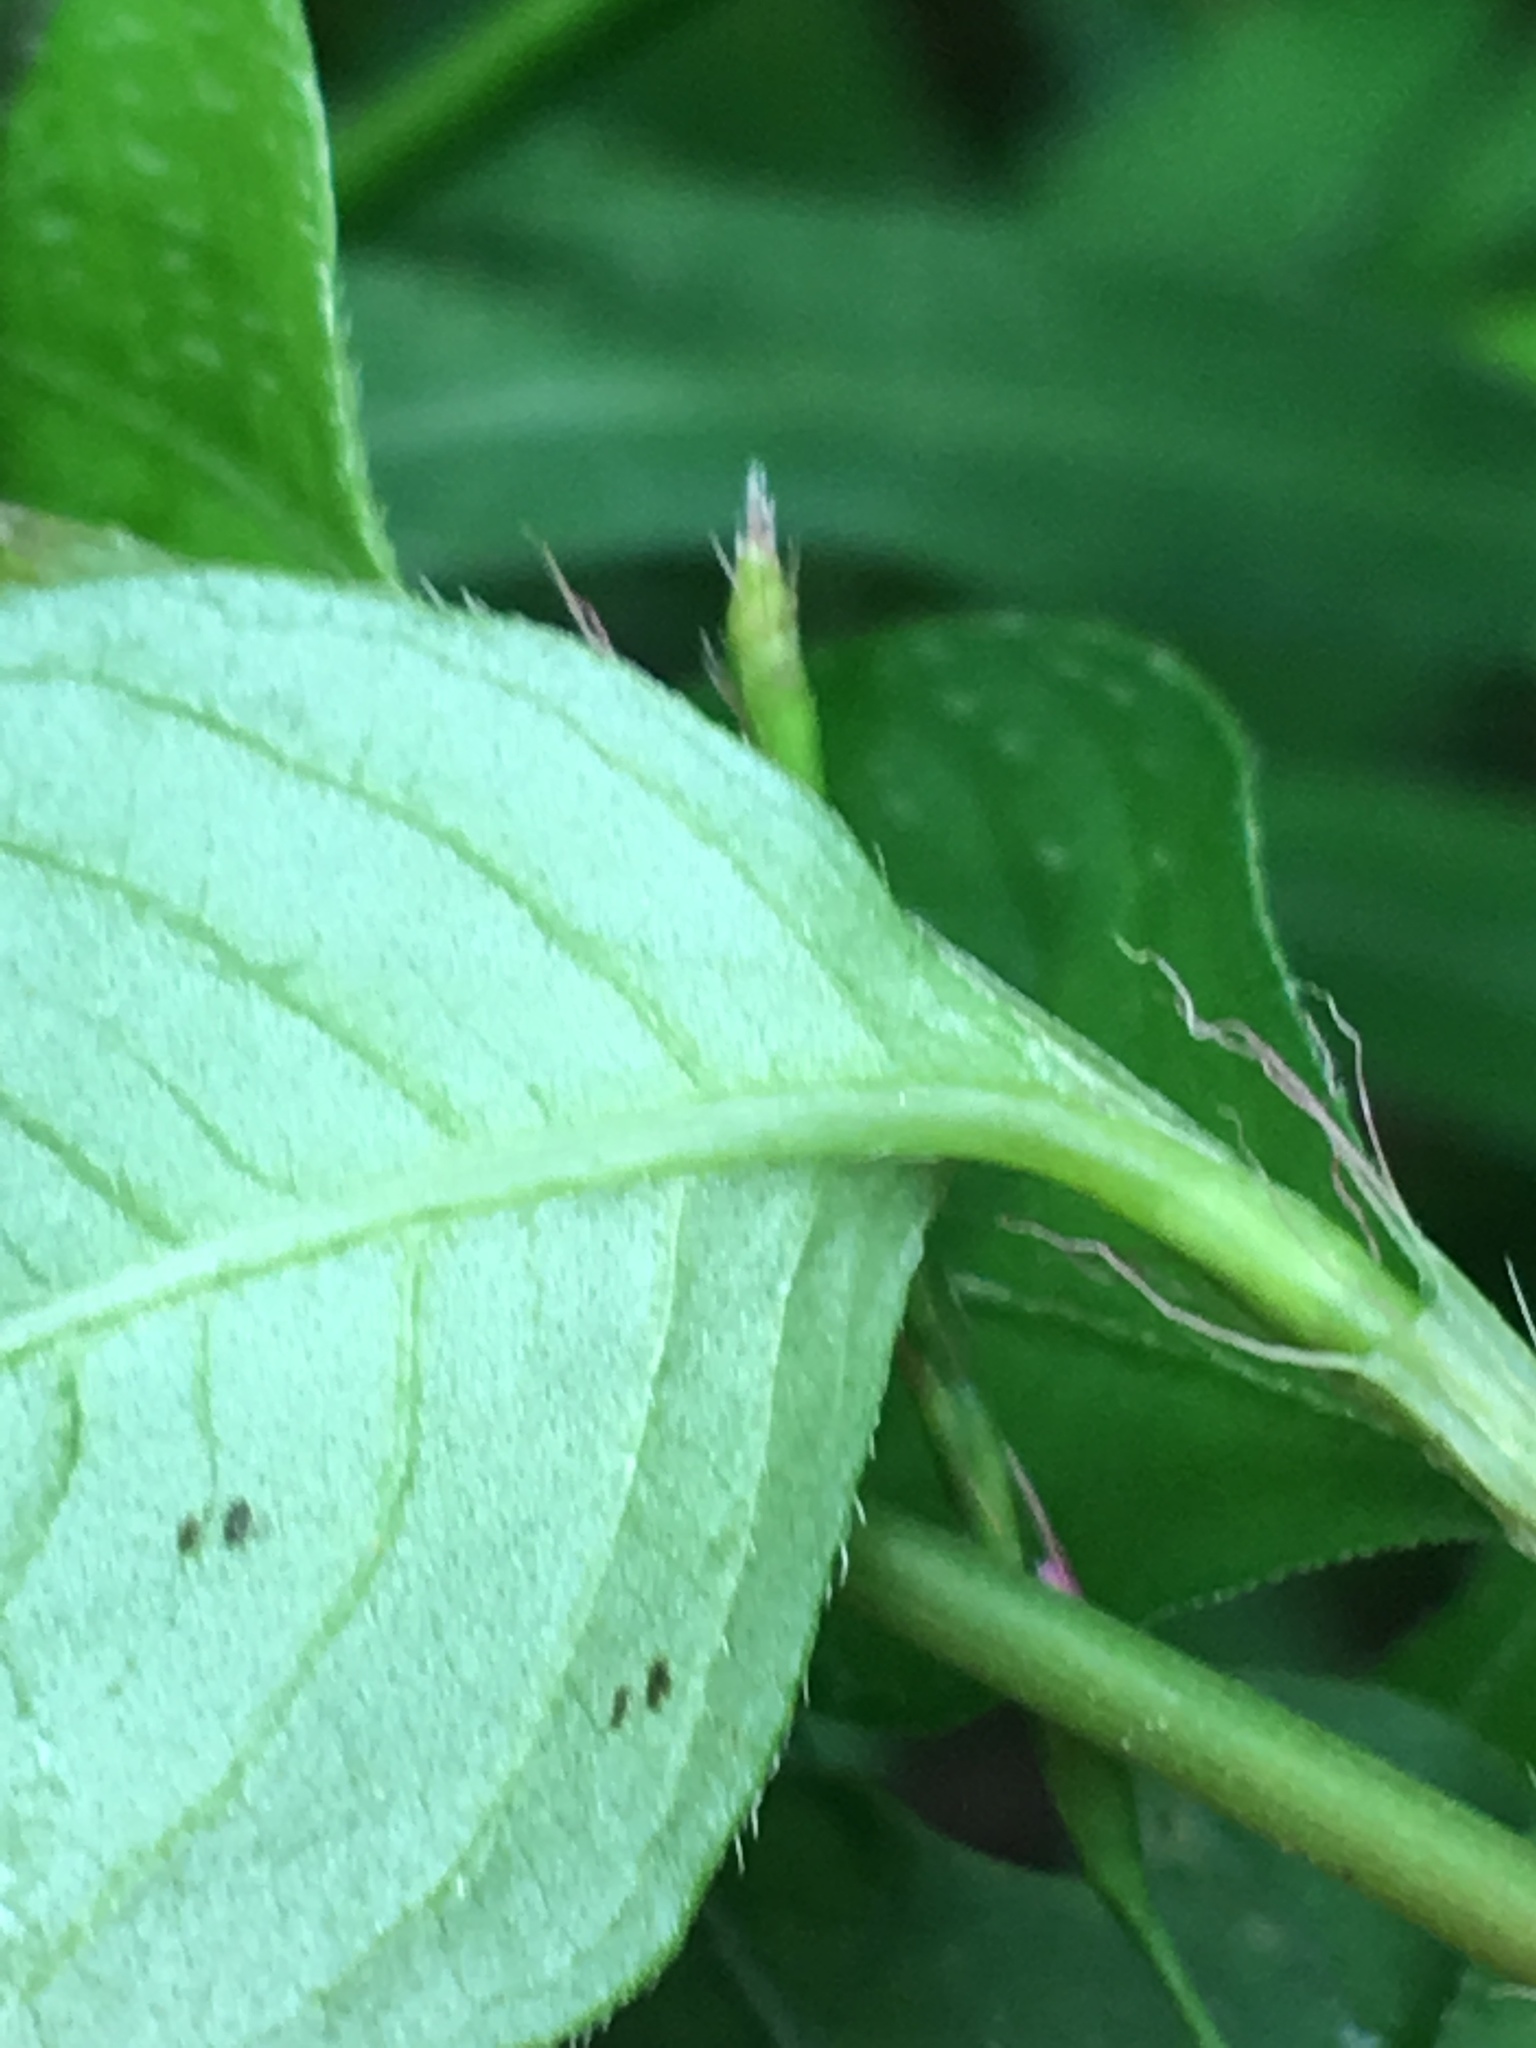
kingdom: Plantae
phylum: Tracheophyta
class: Magnoliopsida
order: Caryophyllales
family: Polygonaceae
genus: Persicaria
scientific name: Persicaria hydropiperoides
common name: Swamp smartweed
